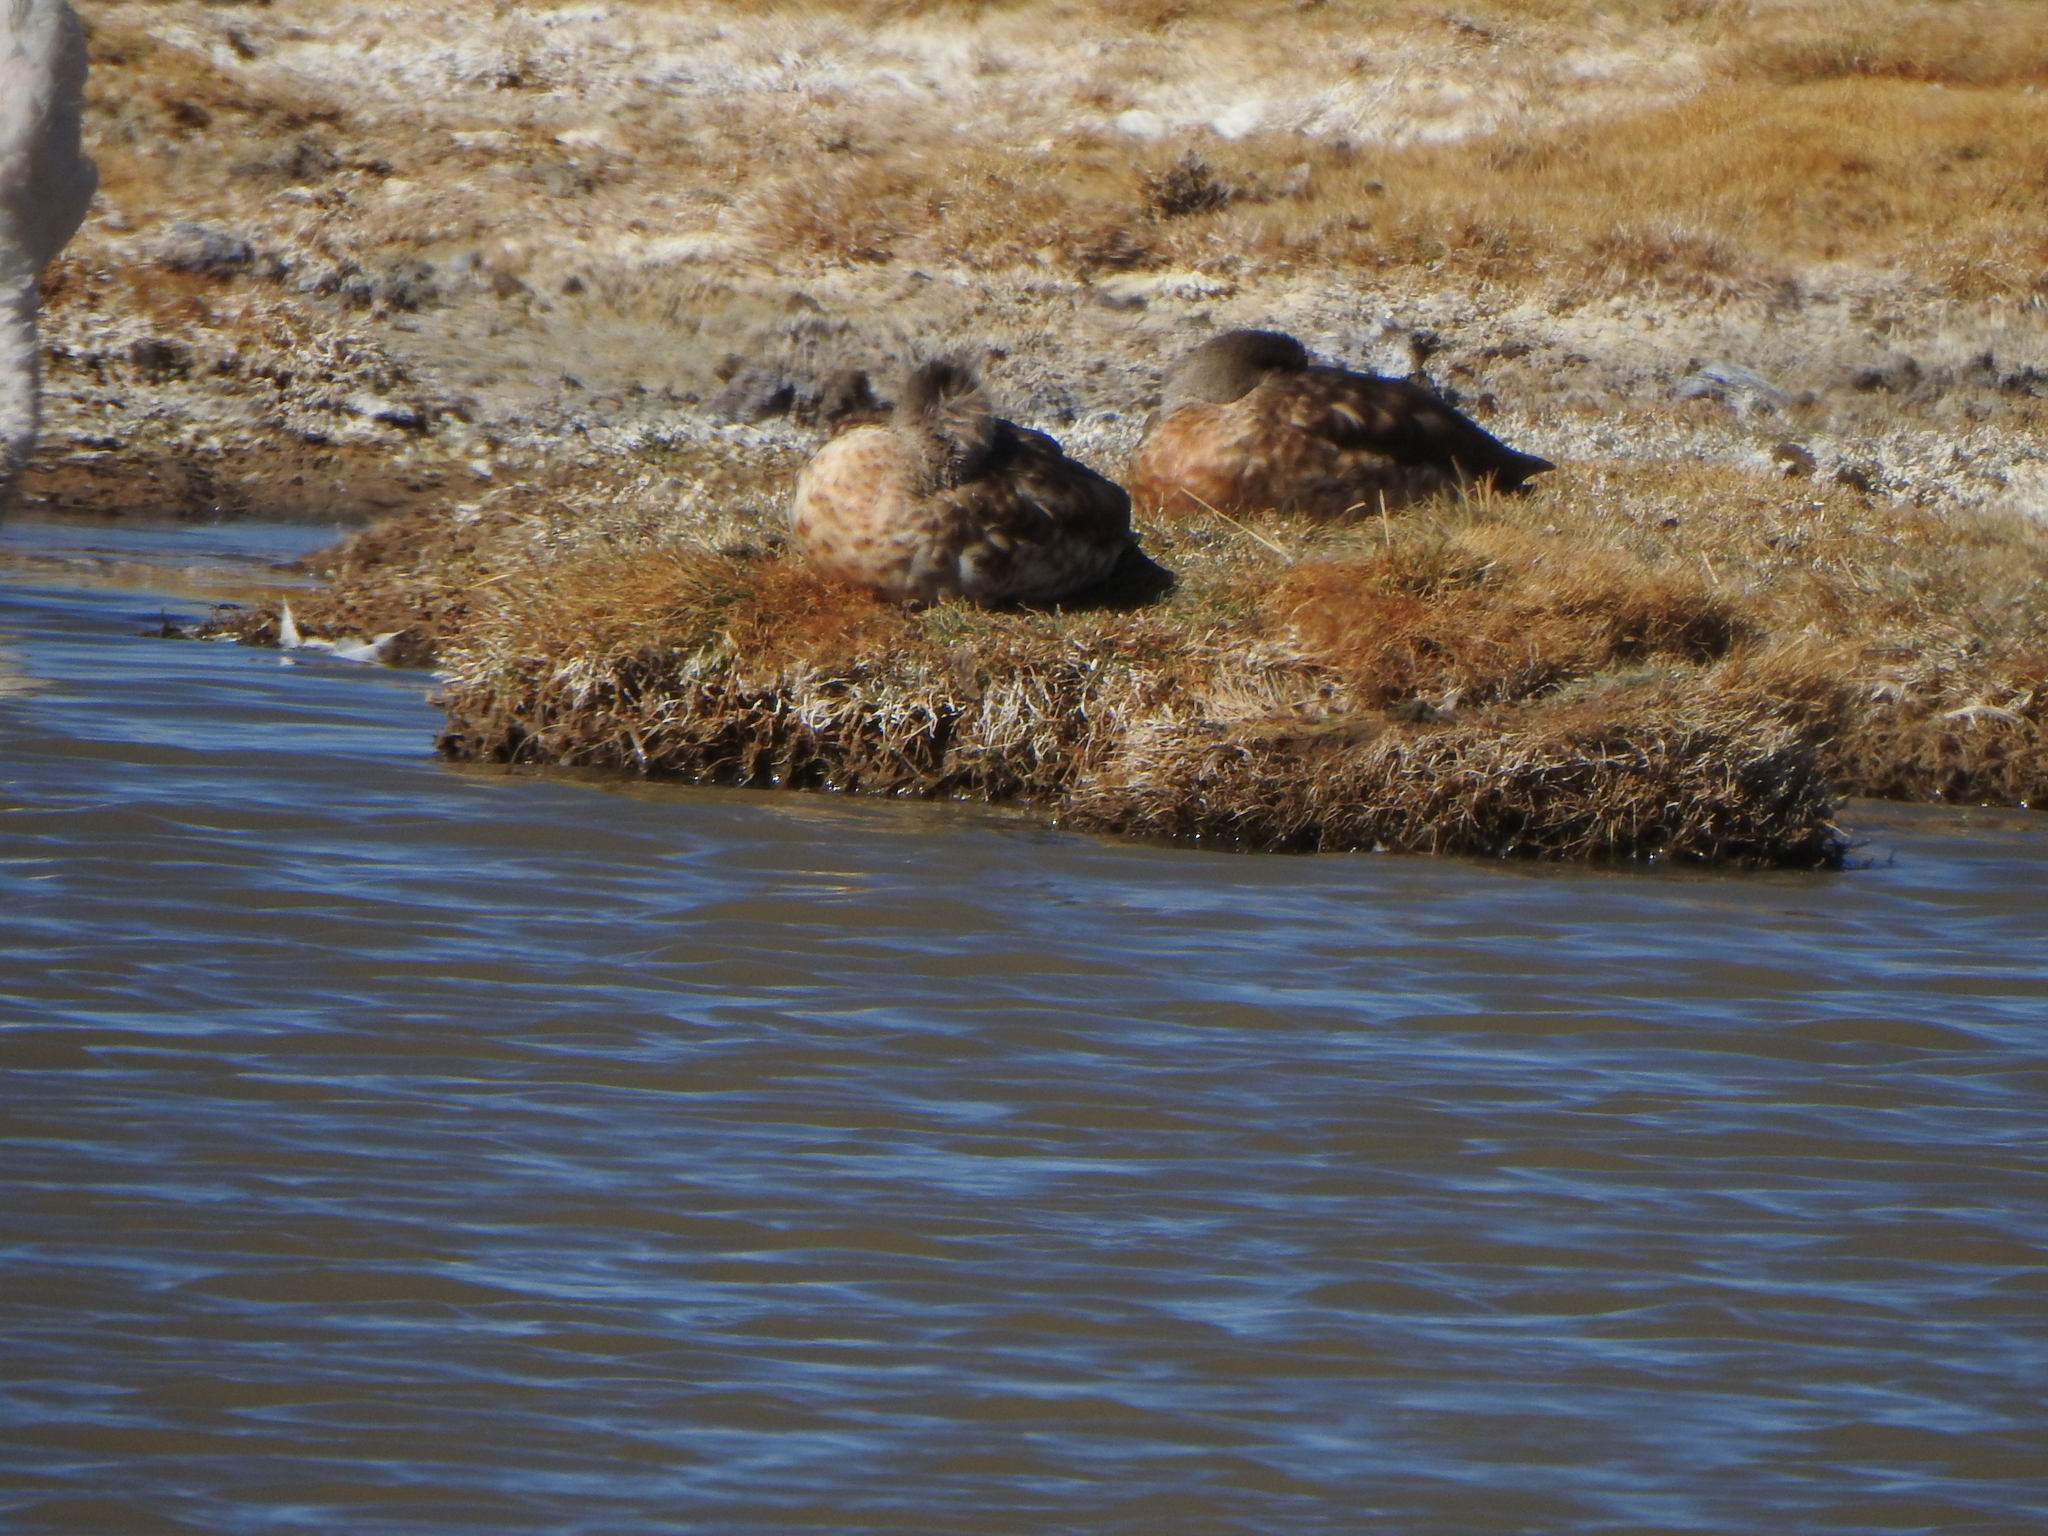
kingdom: Animalia
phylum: Chordata
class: Aves
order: Anseriformes
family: Anatidae
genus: Lophonetta
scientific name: Lophonetta specularioides
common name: Crested duck
